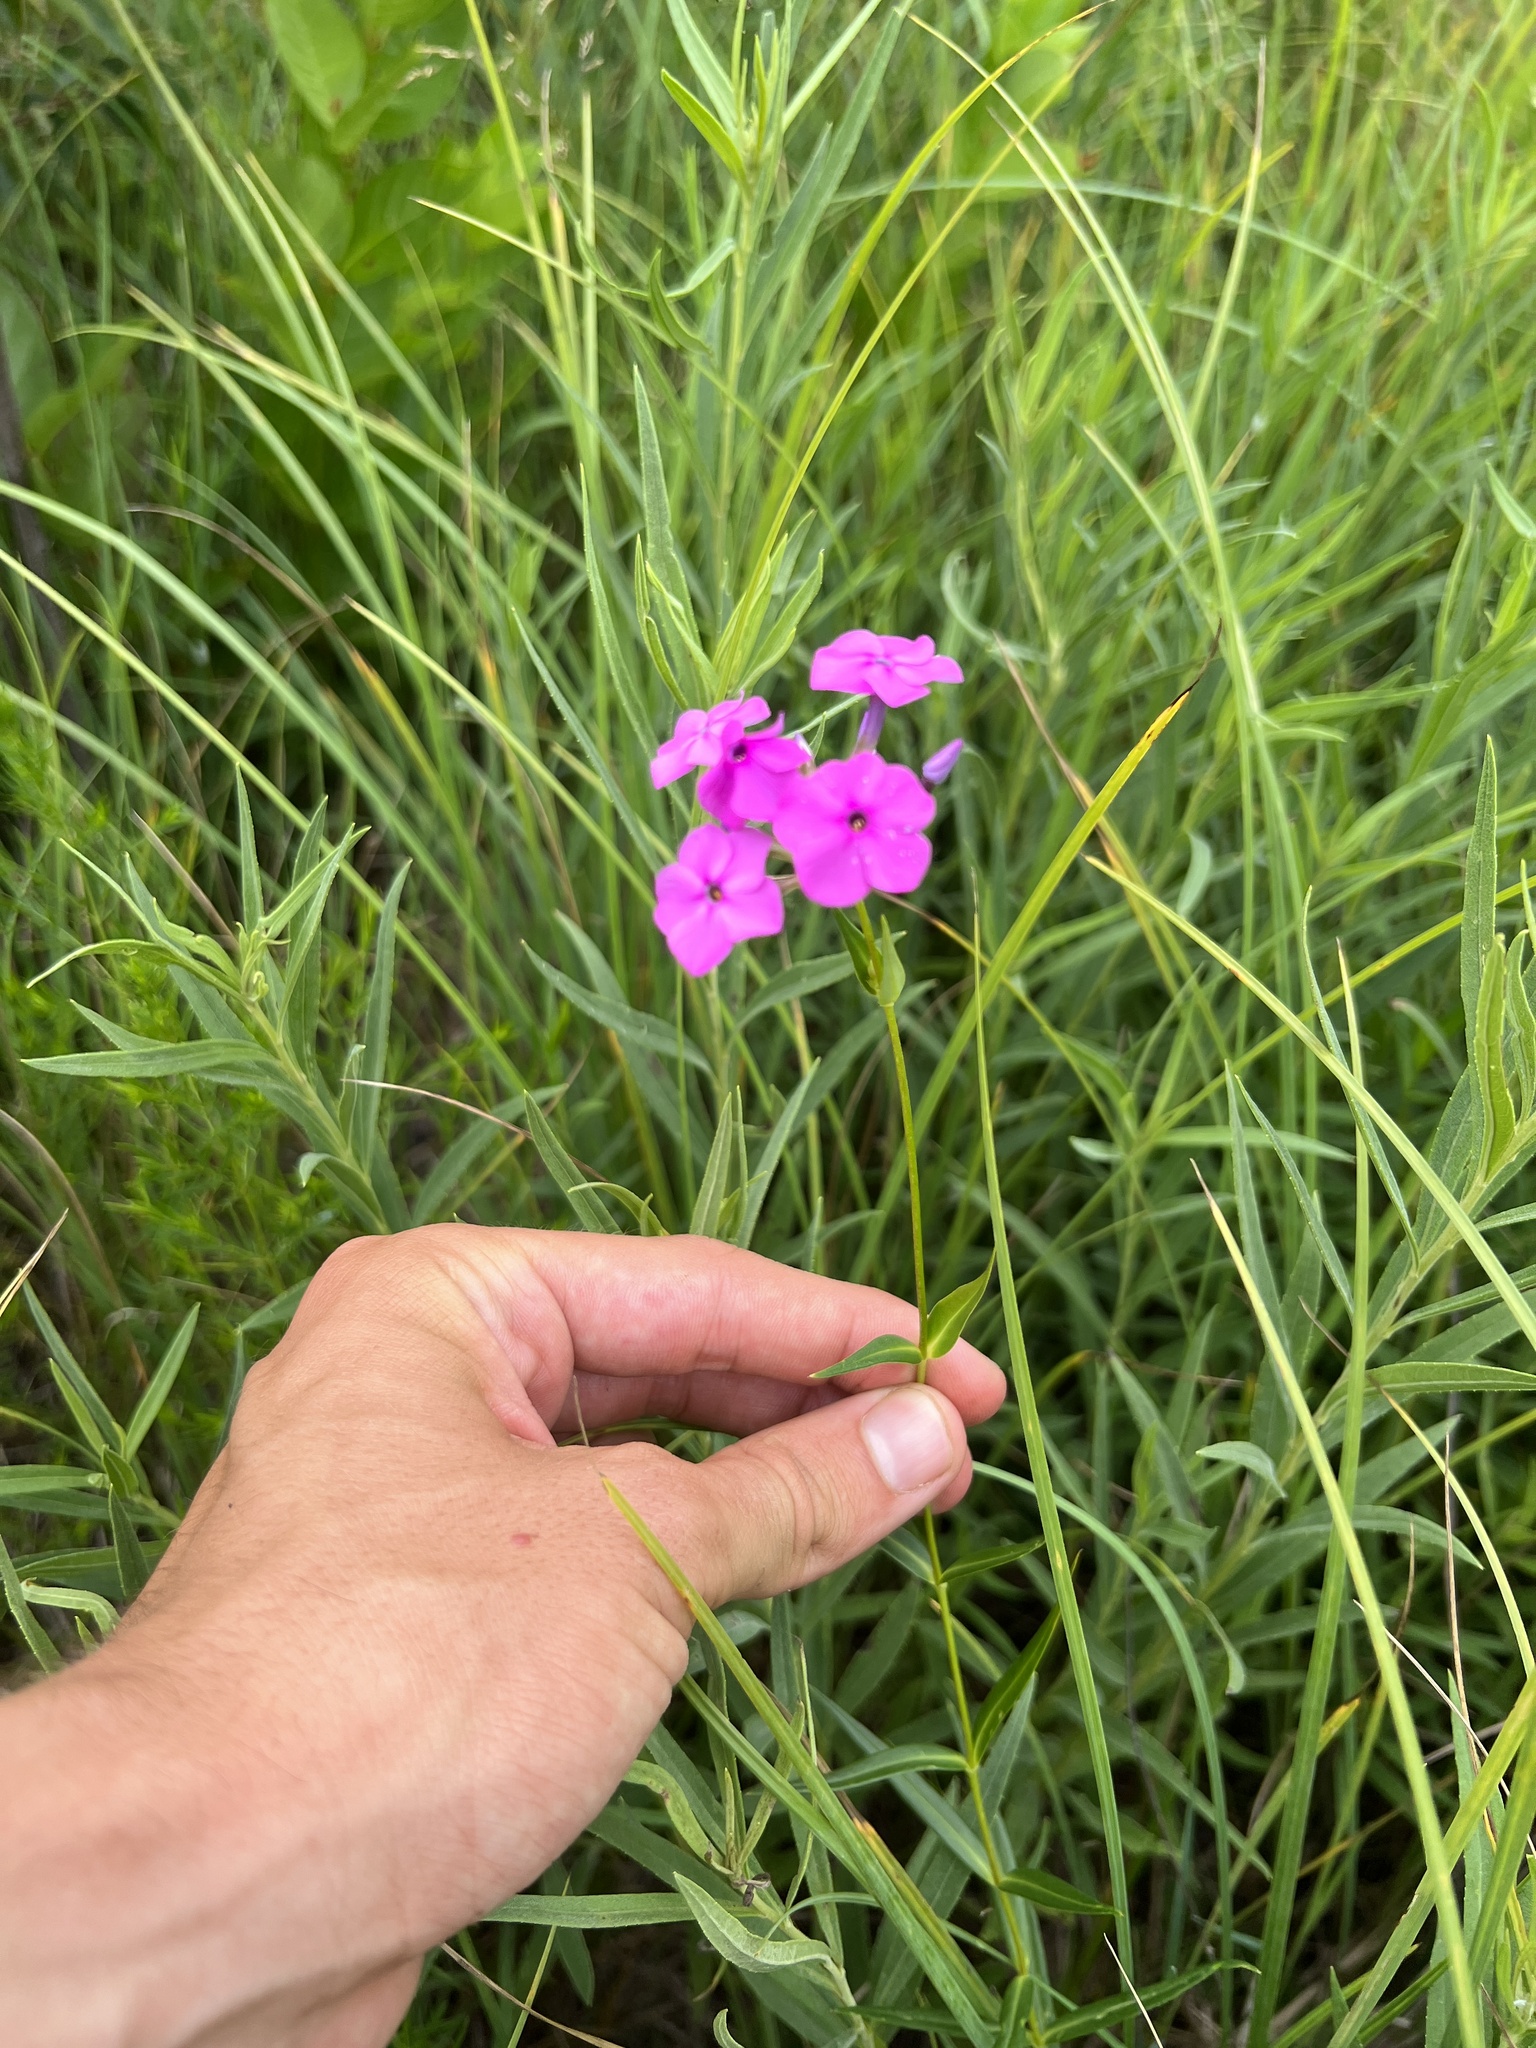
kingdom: Plantae
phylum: Tracheophyta
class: Magnoliopsida
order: Ericales
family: Polemoniaceae
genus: Phlox
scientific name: Phlox glaberrima
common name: Smooth phlox
